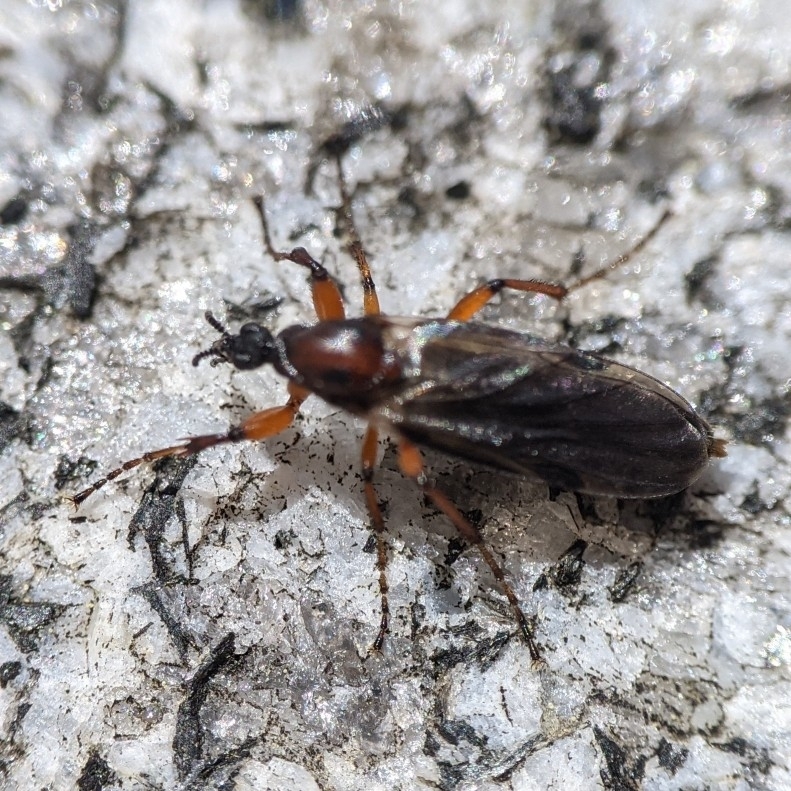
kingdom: Animalia
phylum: Arthropoda
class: Insecta
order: Diptera
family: Bibionidae
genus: Bibio
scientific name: Bibio articulatus
